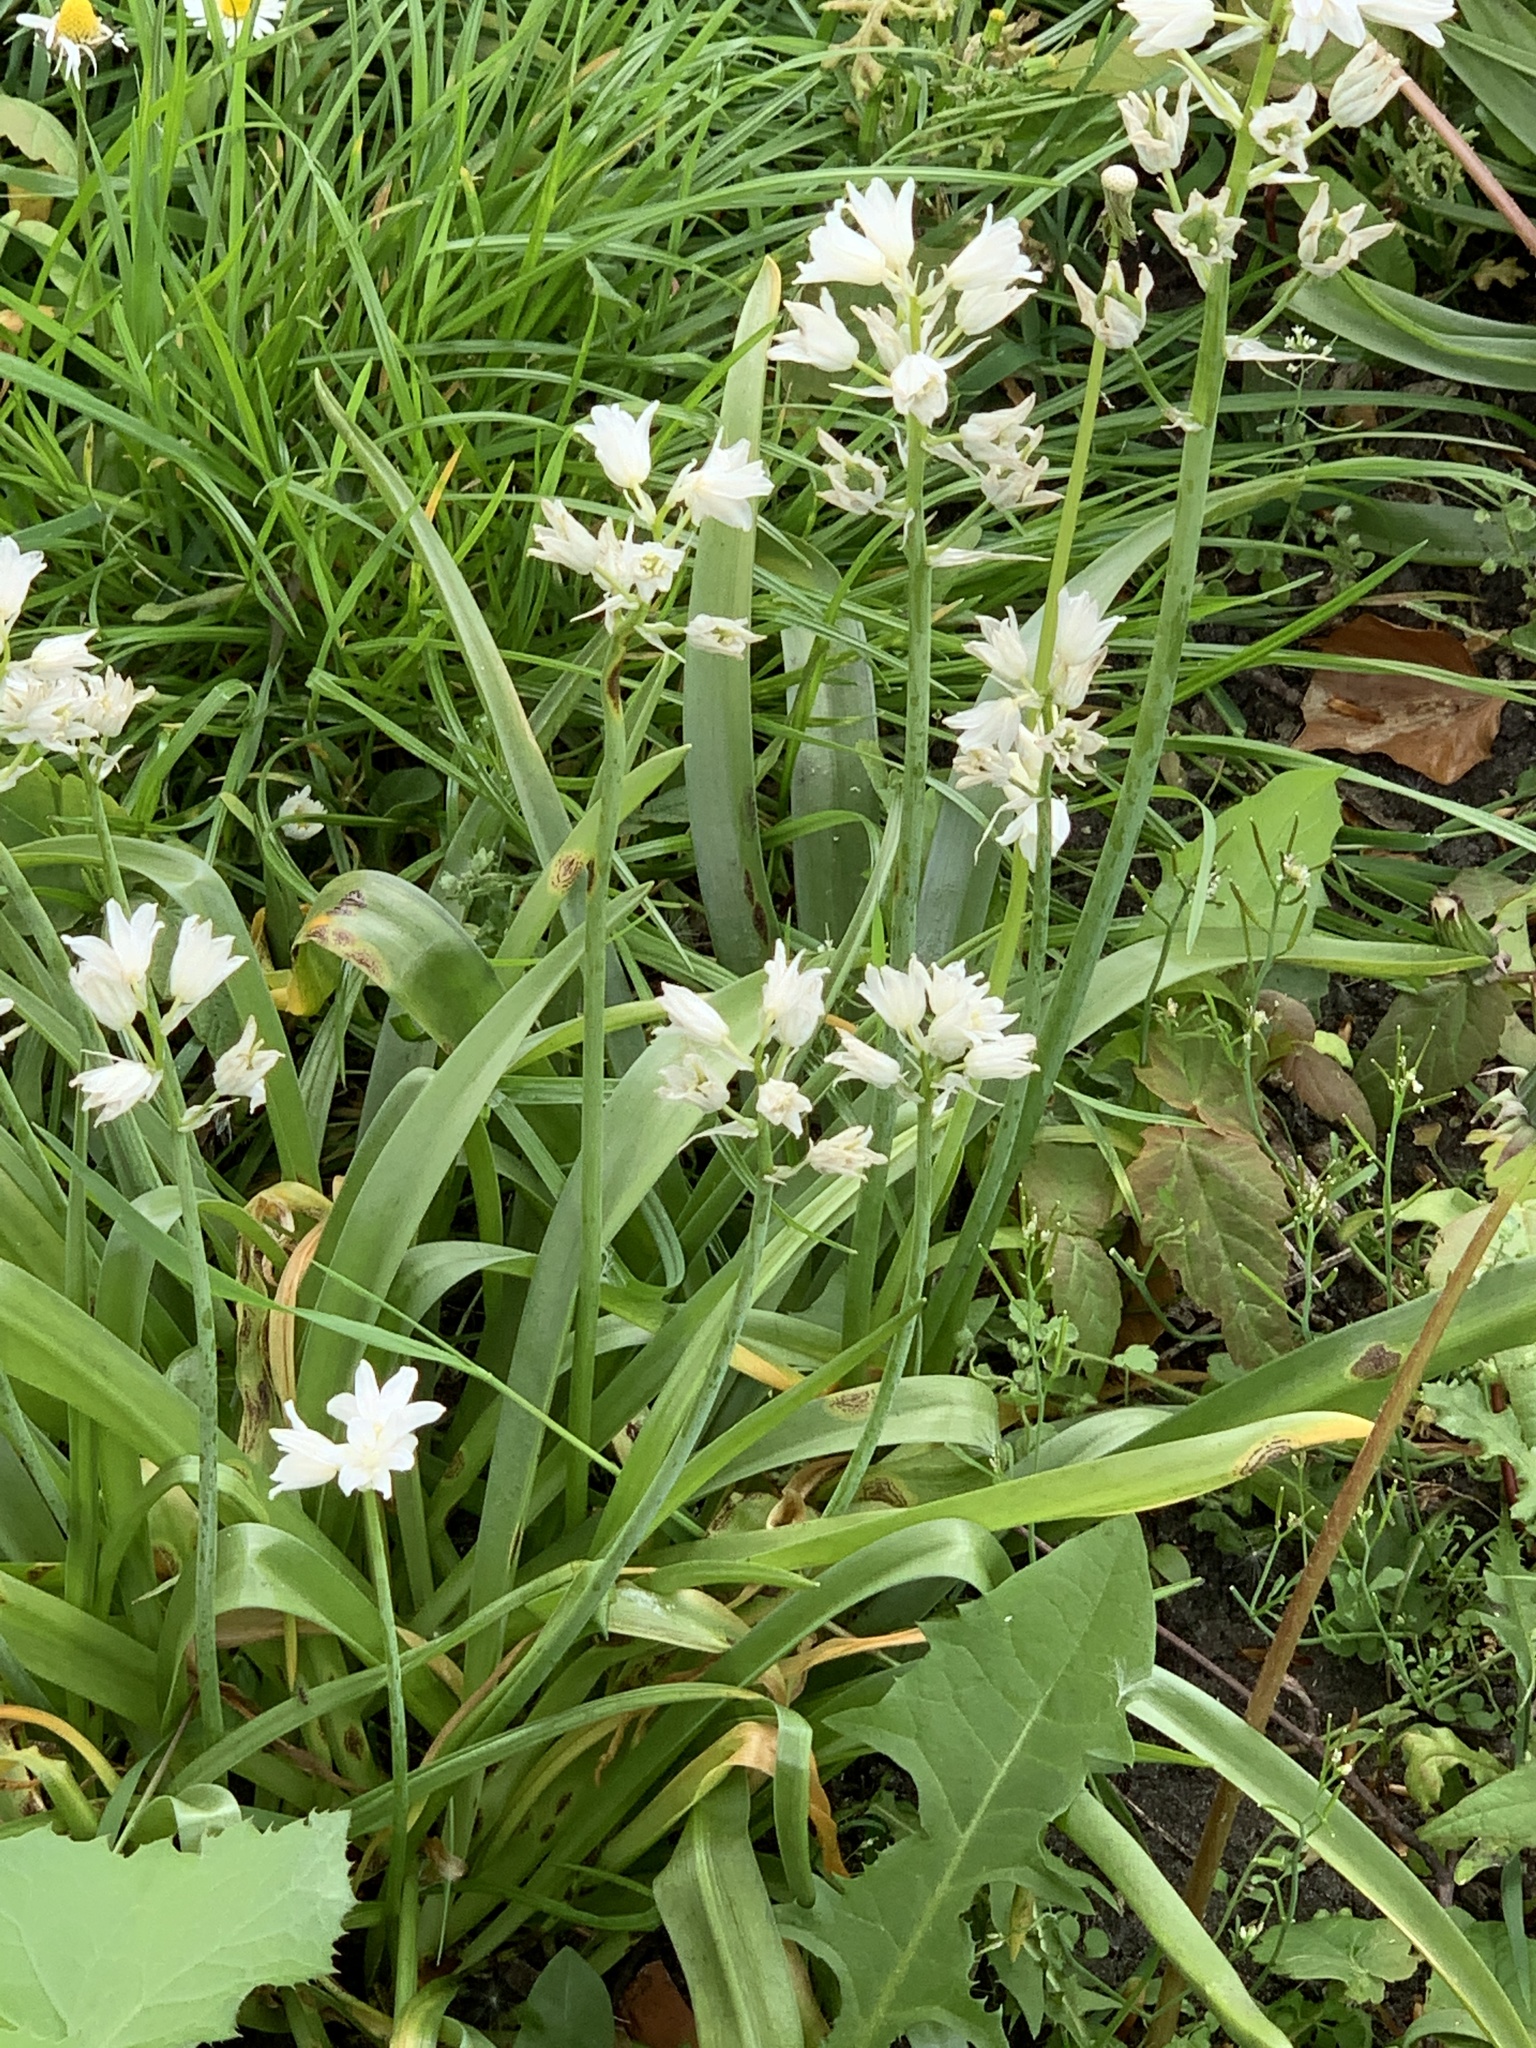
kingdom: Plantae
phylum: Tracheophyta
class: Liliopsida
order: Asparagales
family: Asparagaceae
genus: Hyacinthoides
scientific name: Hyacinthoides massartiana
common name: Hyacinthoides
